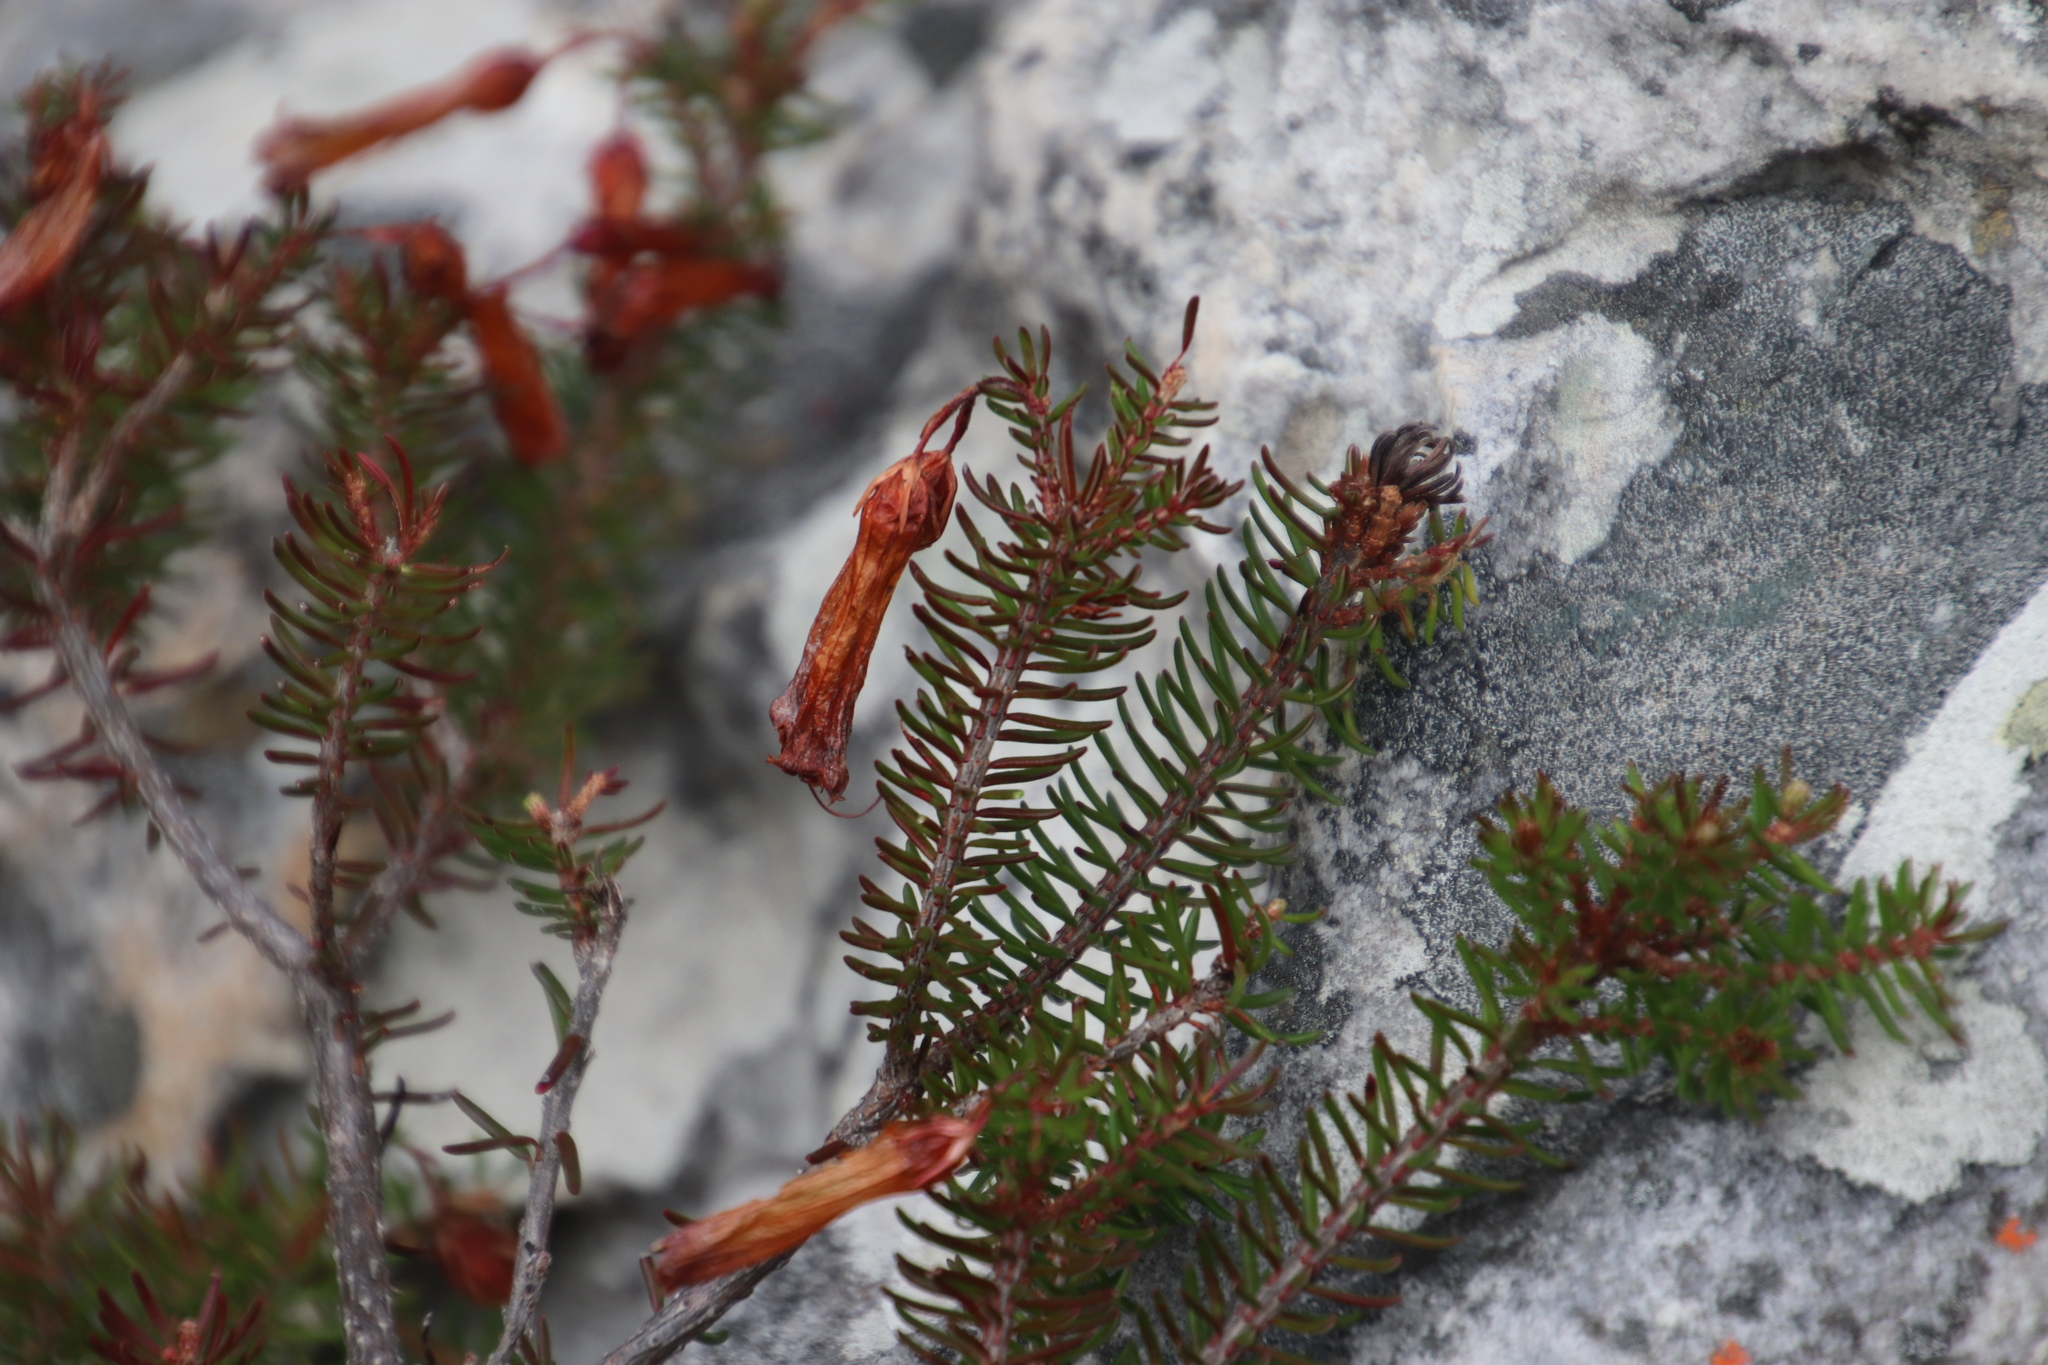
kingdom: Plantae
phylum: Tracheophyta
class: Magnoliopsida
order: Ericales
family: Ericaceae
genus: Erica
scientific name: Erica nevillei
